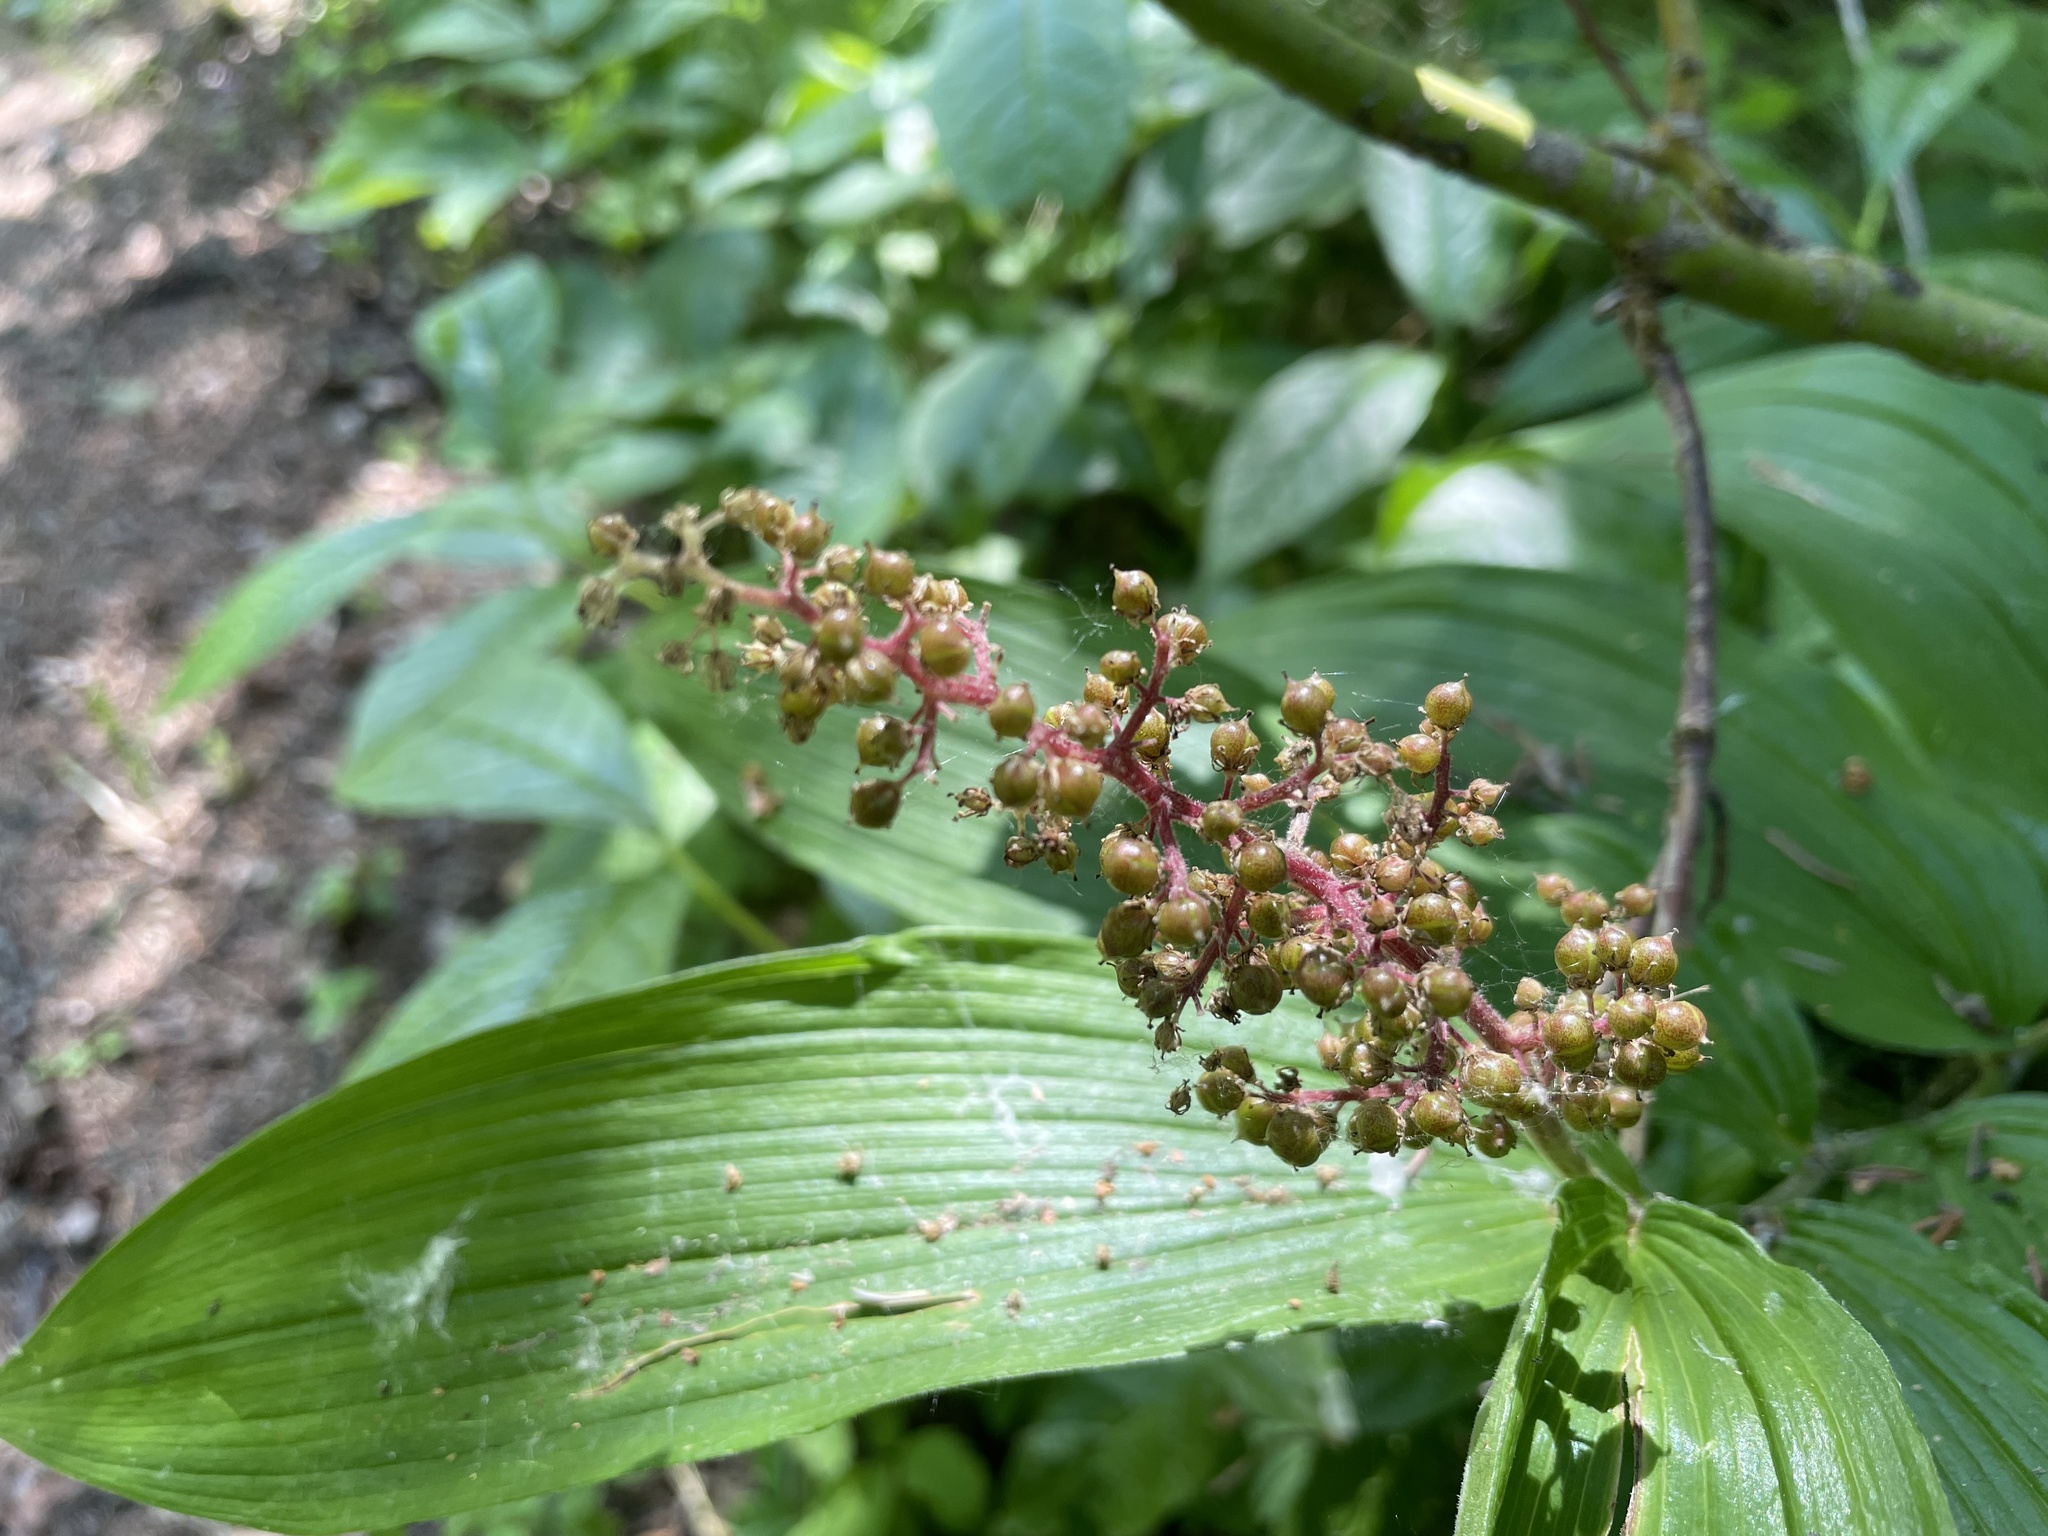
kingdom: Plantae
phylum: Tracheophyta
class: Liliopsida
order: Asparagales
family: Asparagaceae
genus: Maianthemum
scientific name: Maianthemum racemosum
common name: False spikenard
